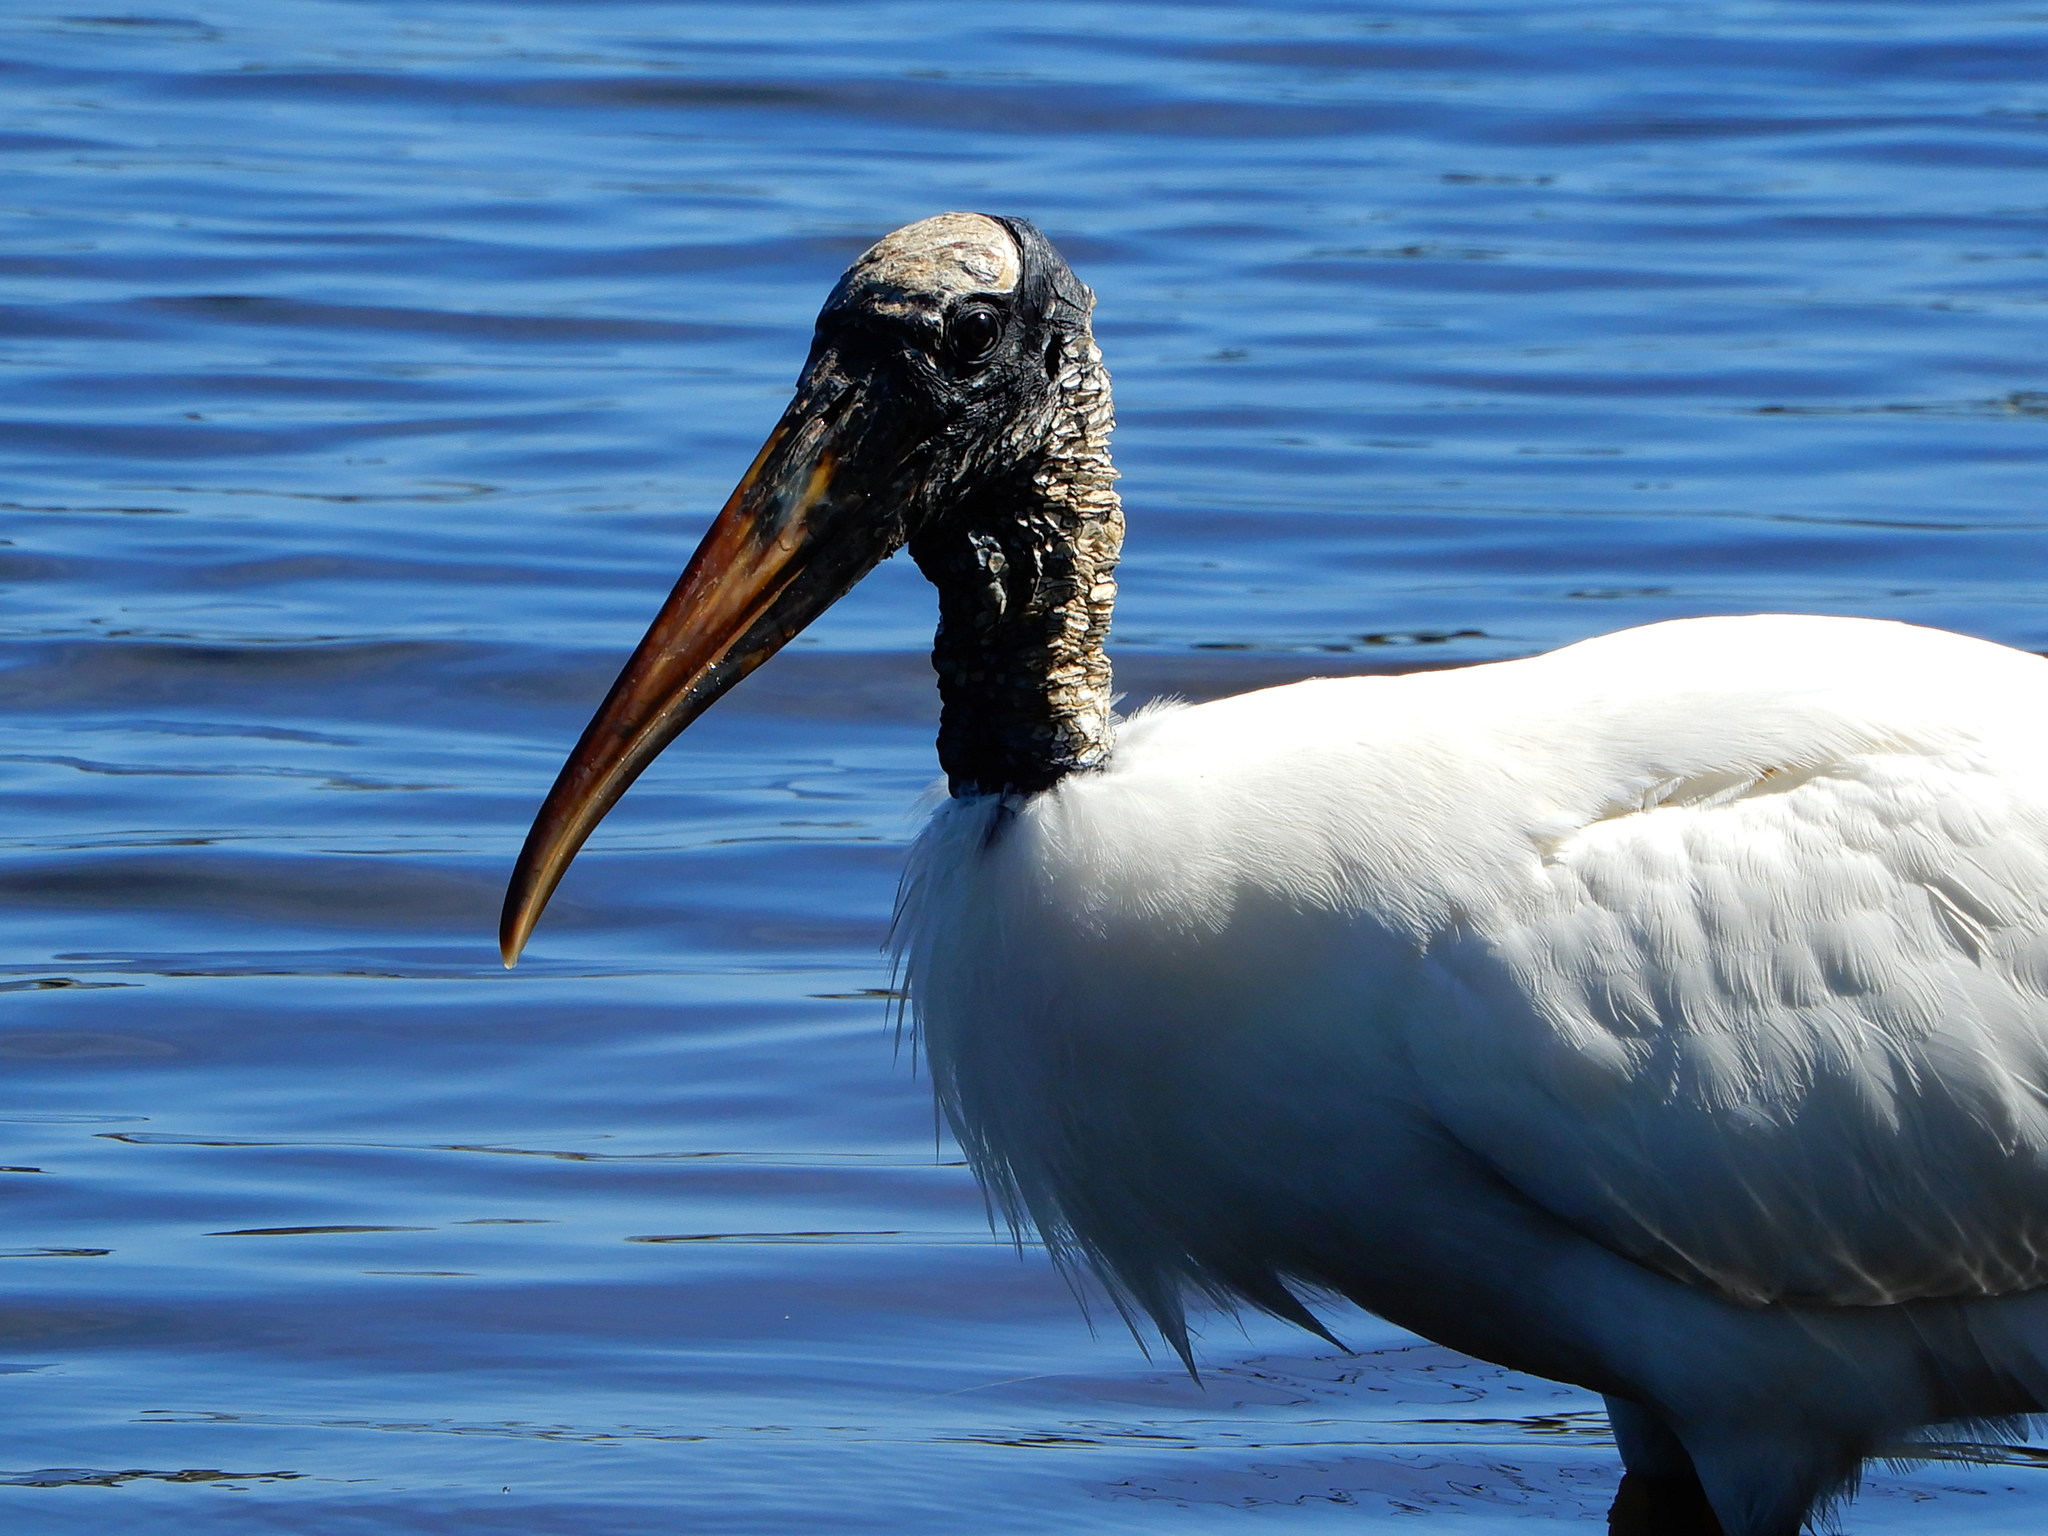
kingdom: Animalia
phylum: Chordata
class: Aves
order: Ciconiiformes
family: Ciconiidae
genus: Mycteria
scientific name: Mycteria americana
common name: Wood stork
